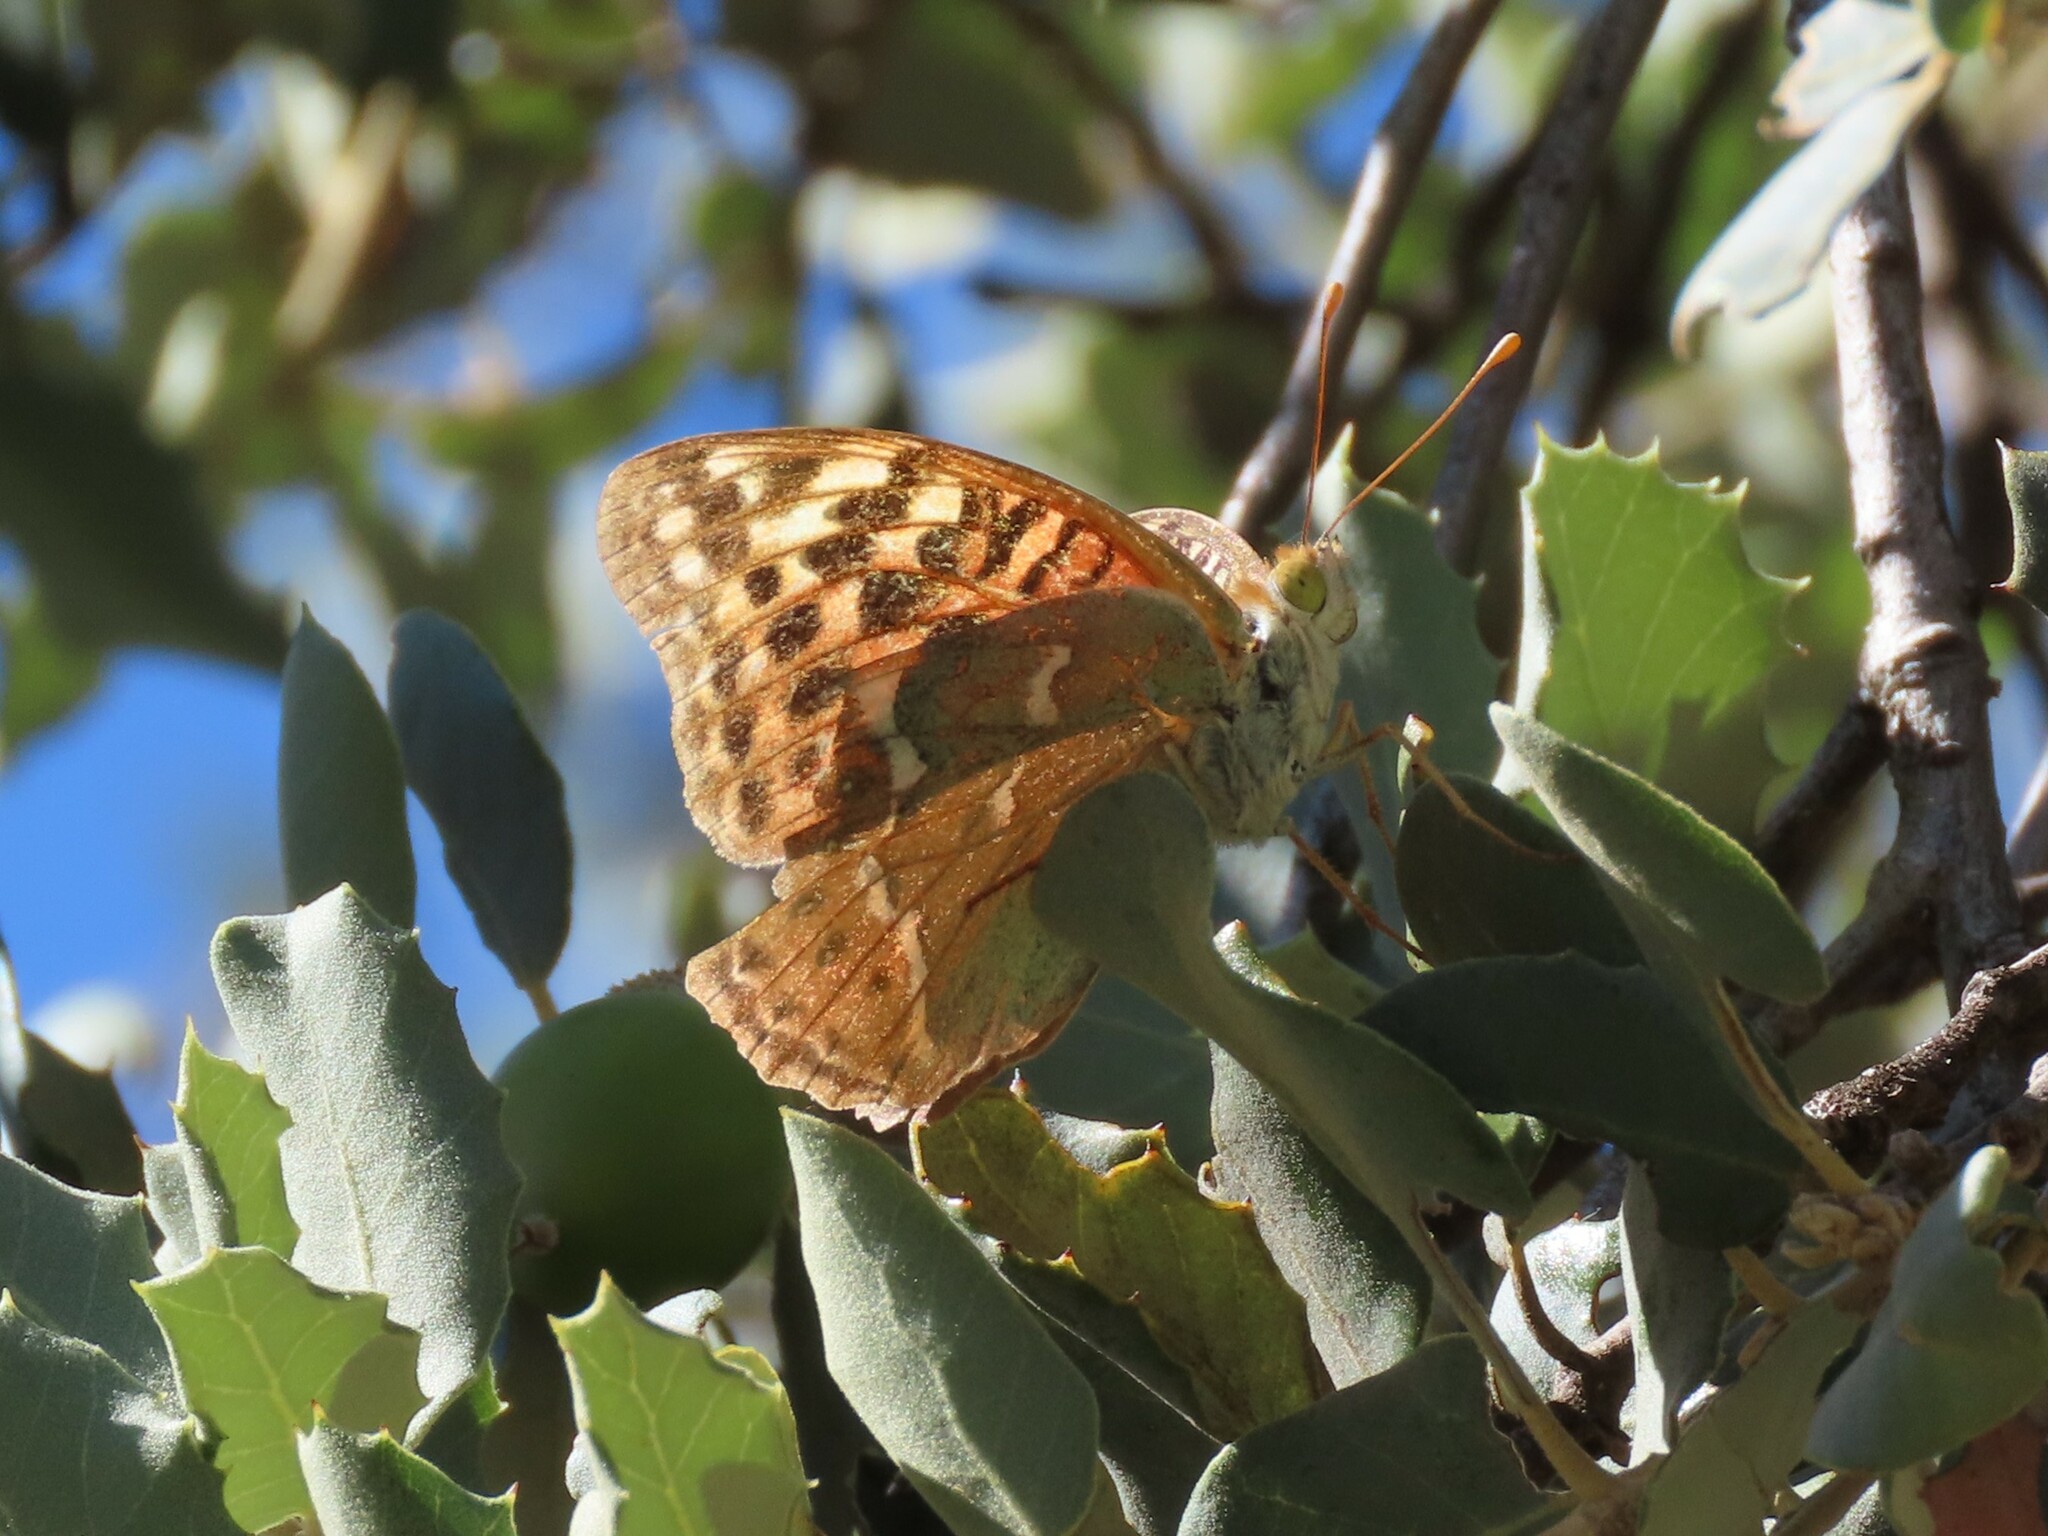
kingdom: Animalia
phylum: Arthropoda
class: Insecta
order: Lepidoptera
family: Nymphalidae
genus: Damora
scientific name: Damora pandora
